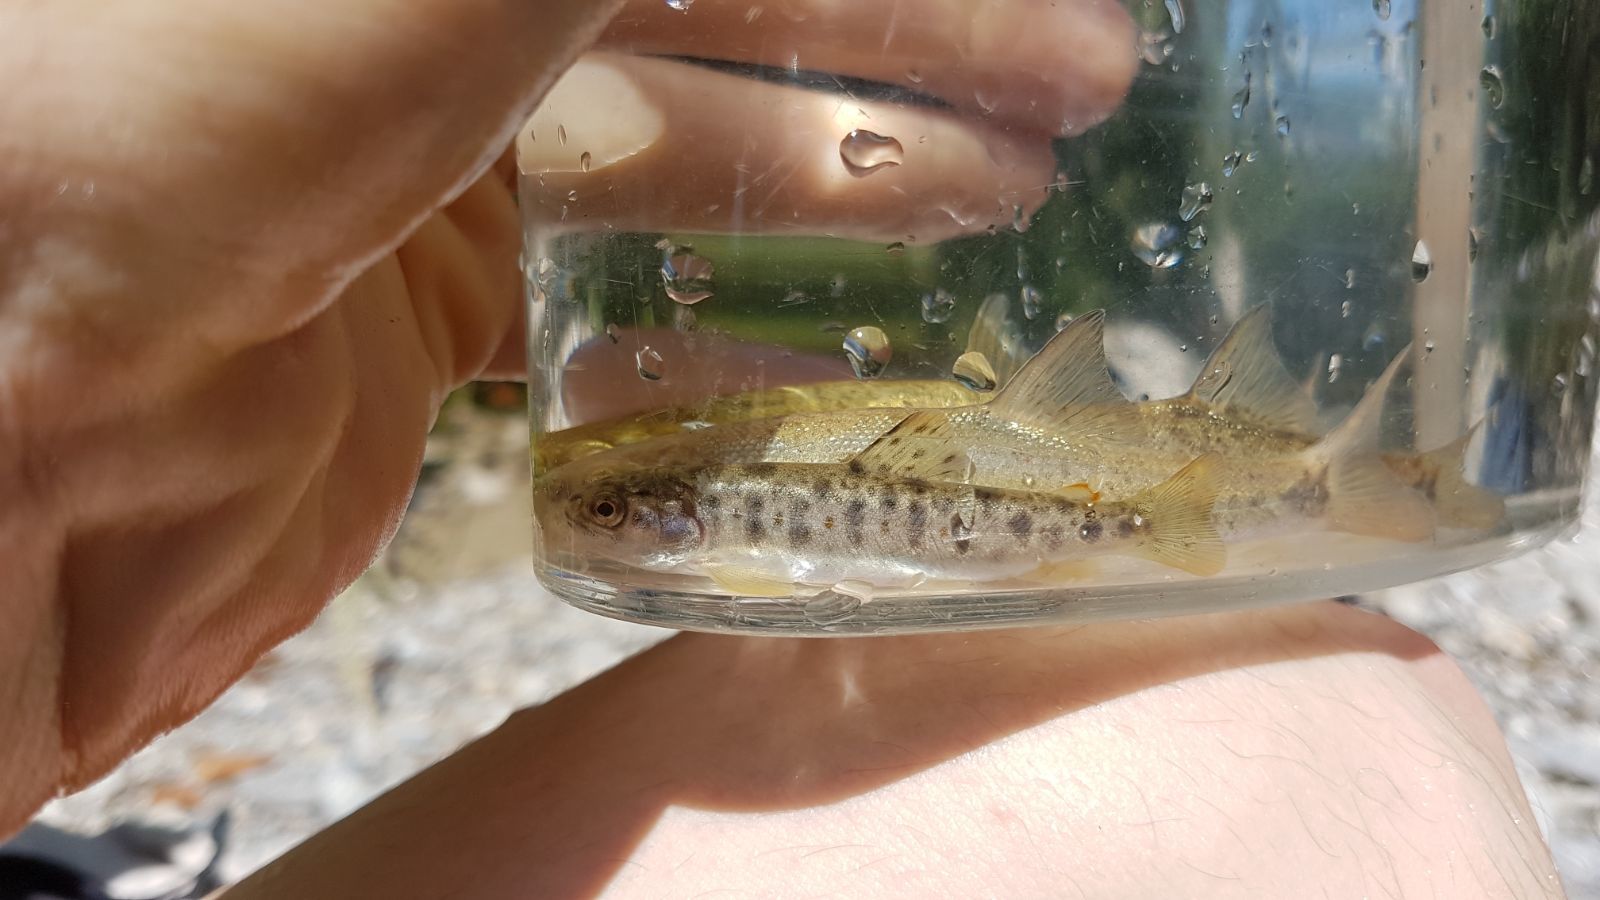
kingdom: Animalia
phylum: Chordata
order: Salmoniformes
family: Salmonidae
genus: Salmo
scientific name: Salmo trutta
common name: Brown trout
